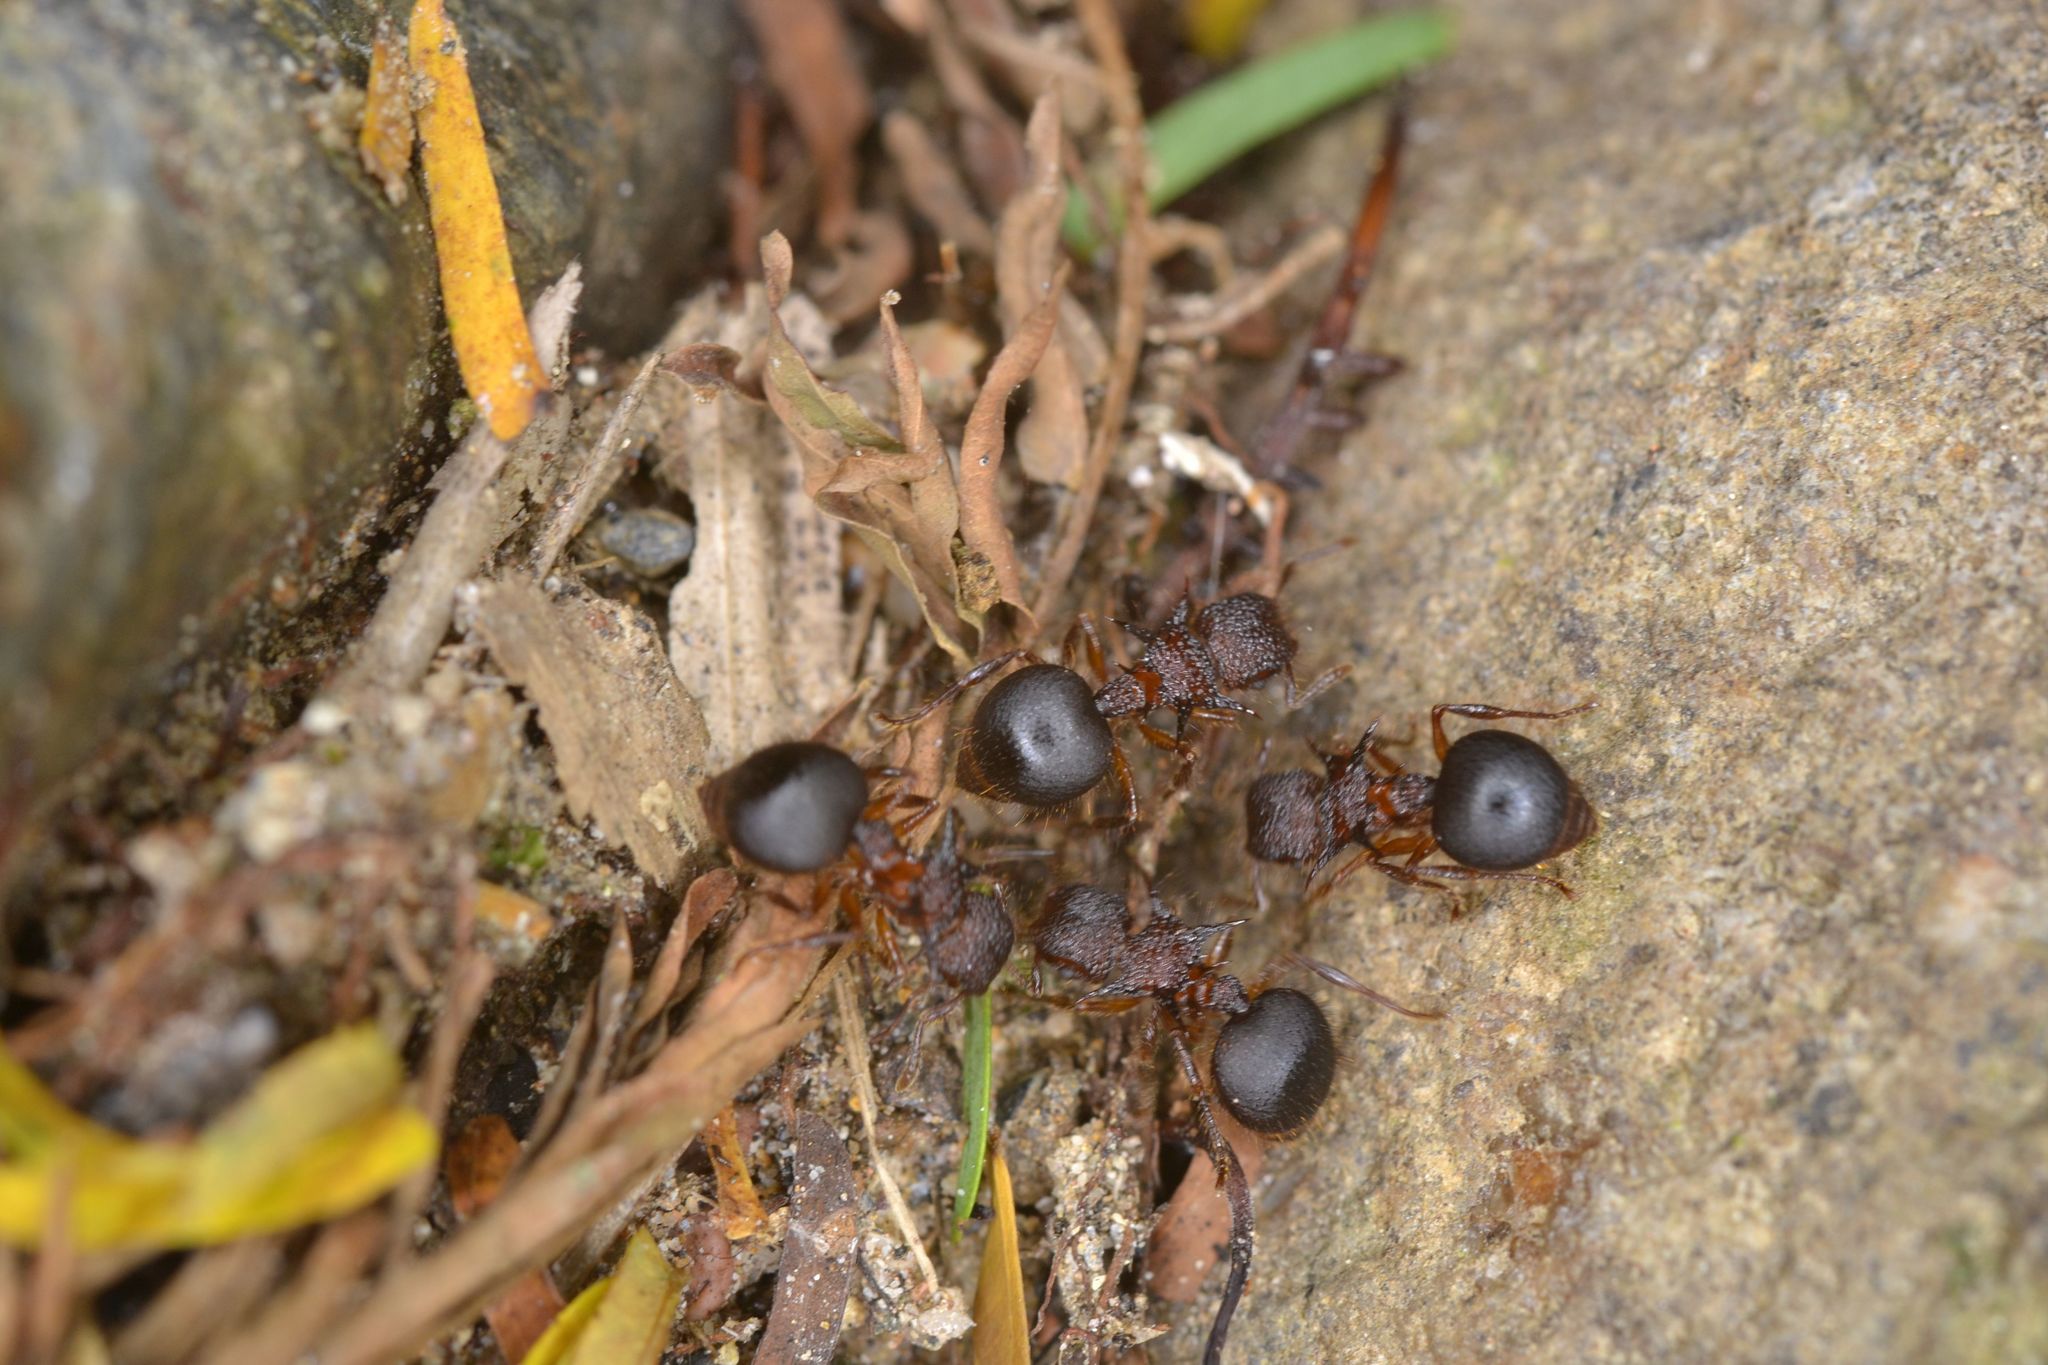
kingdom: Animalia
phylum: Arthropoda
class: Insecta
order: Hymenoptera
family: Formicidae
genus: Meranoplus
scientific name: Meranoplus mucronatus
